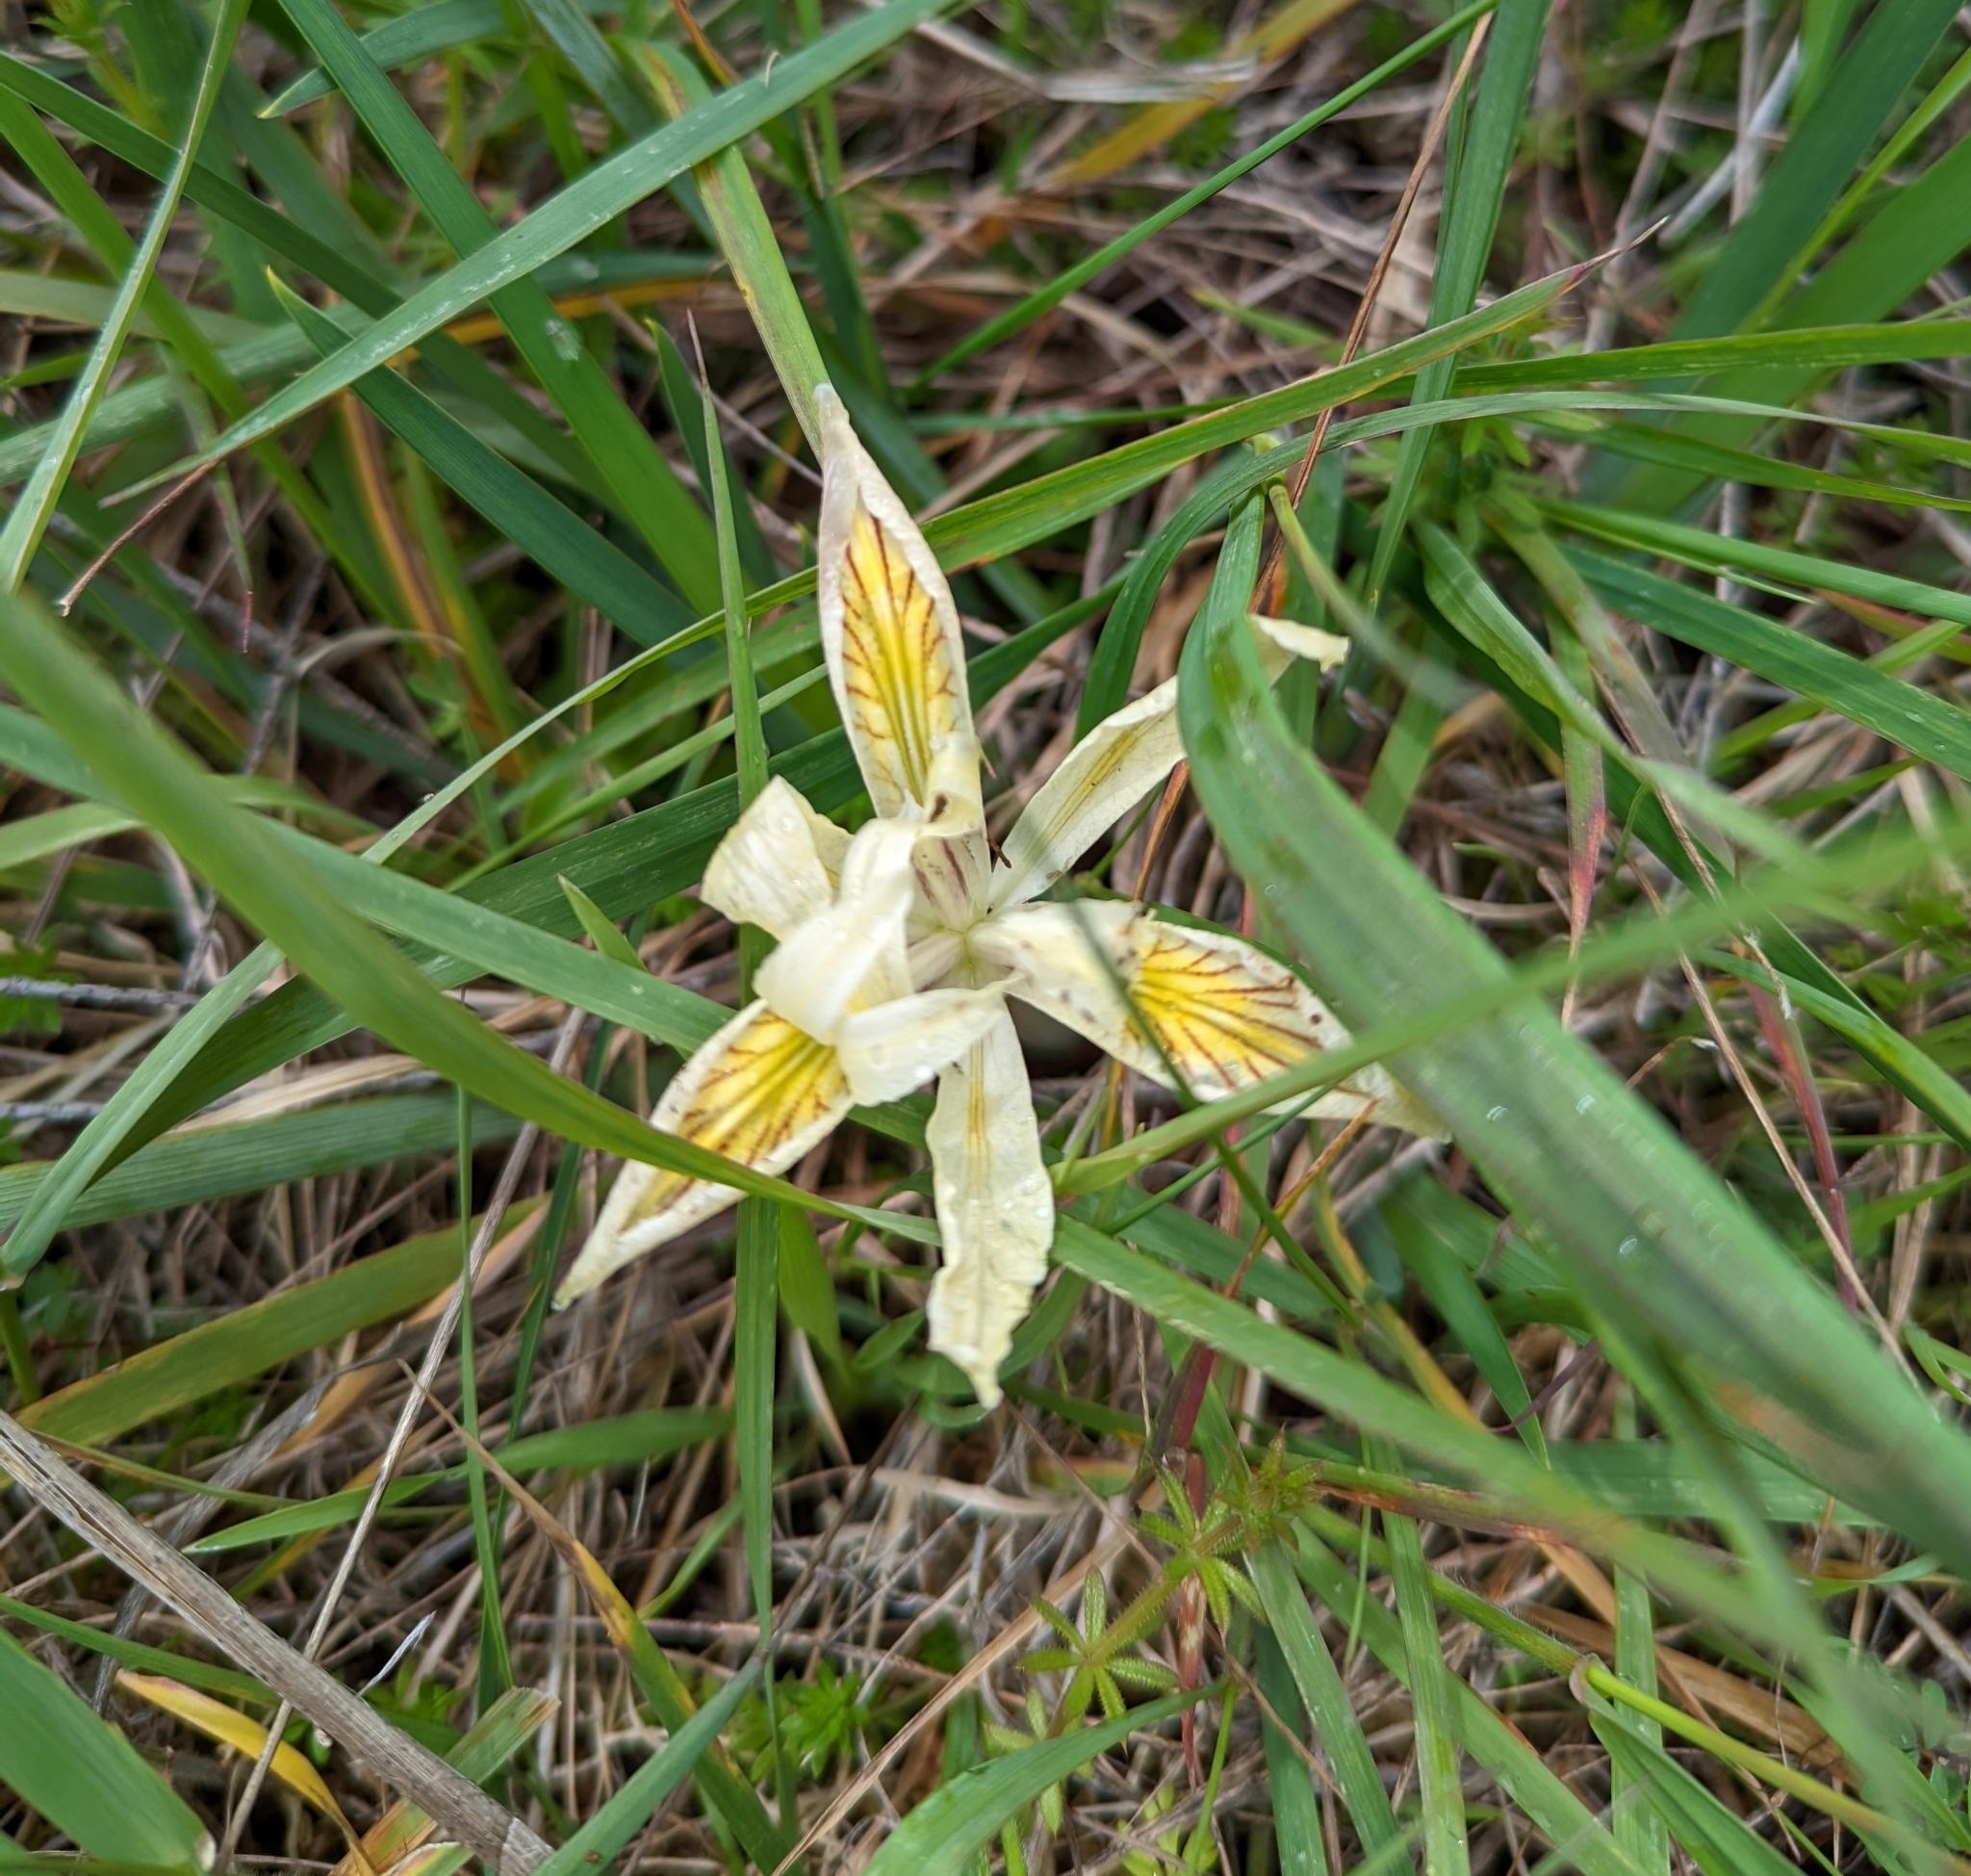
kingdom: Plantae
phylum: Tracheophyta
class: Liliopsida
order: Asparagales
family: Iridaceae
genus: Iris
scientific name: Iris chrysophylla
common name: Yellow-leaf iris
